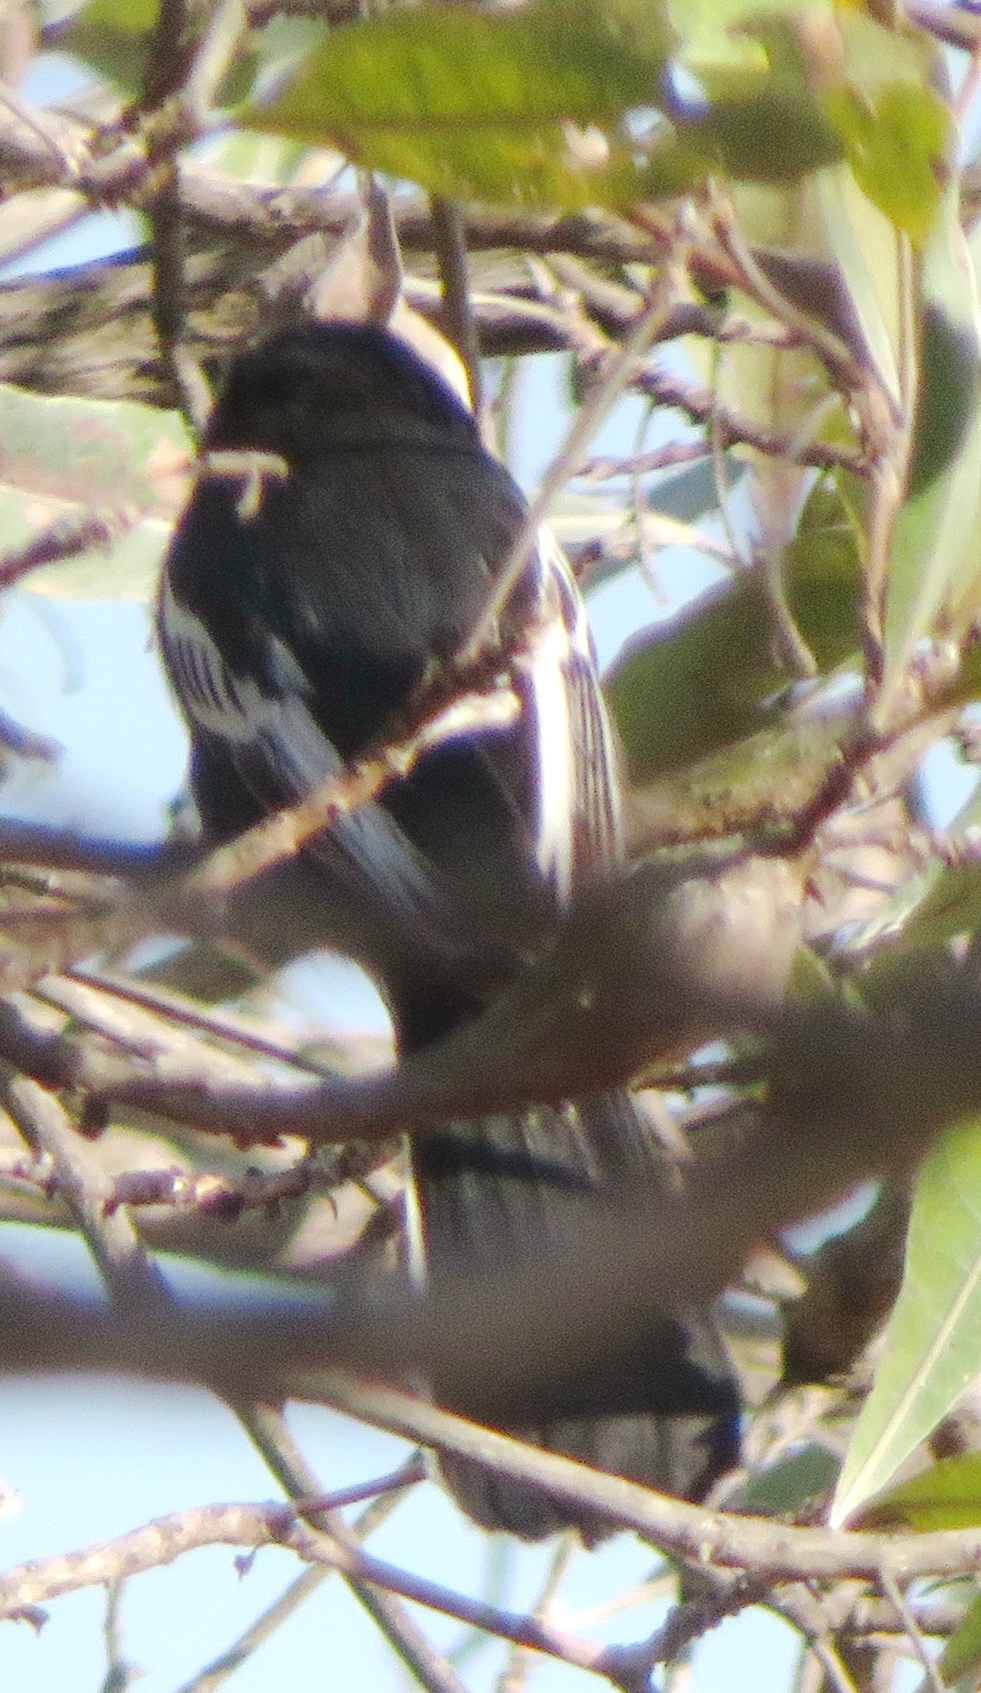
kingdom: Animalia
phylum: Chordata
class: Aves
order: Passeriformes
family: Paridae
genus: Parus
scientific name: Parus niger
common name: Southern black tit
